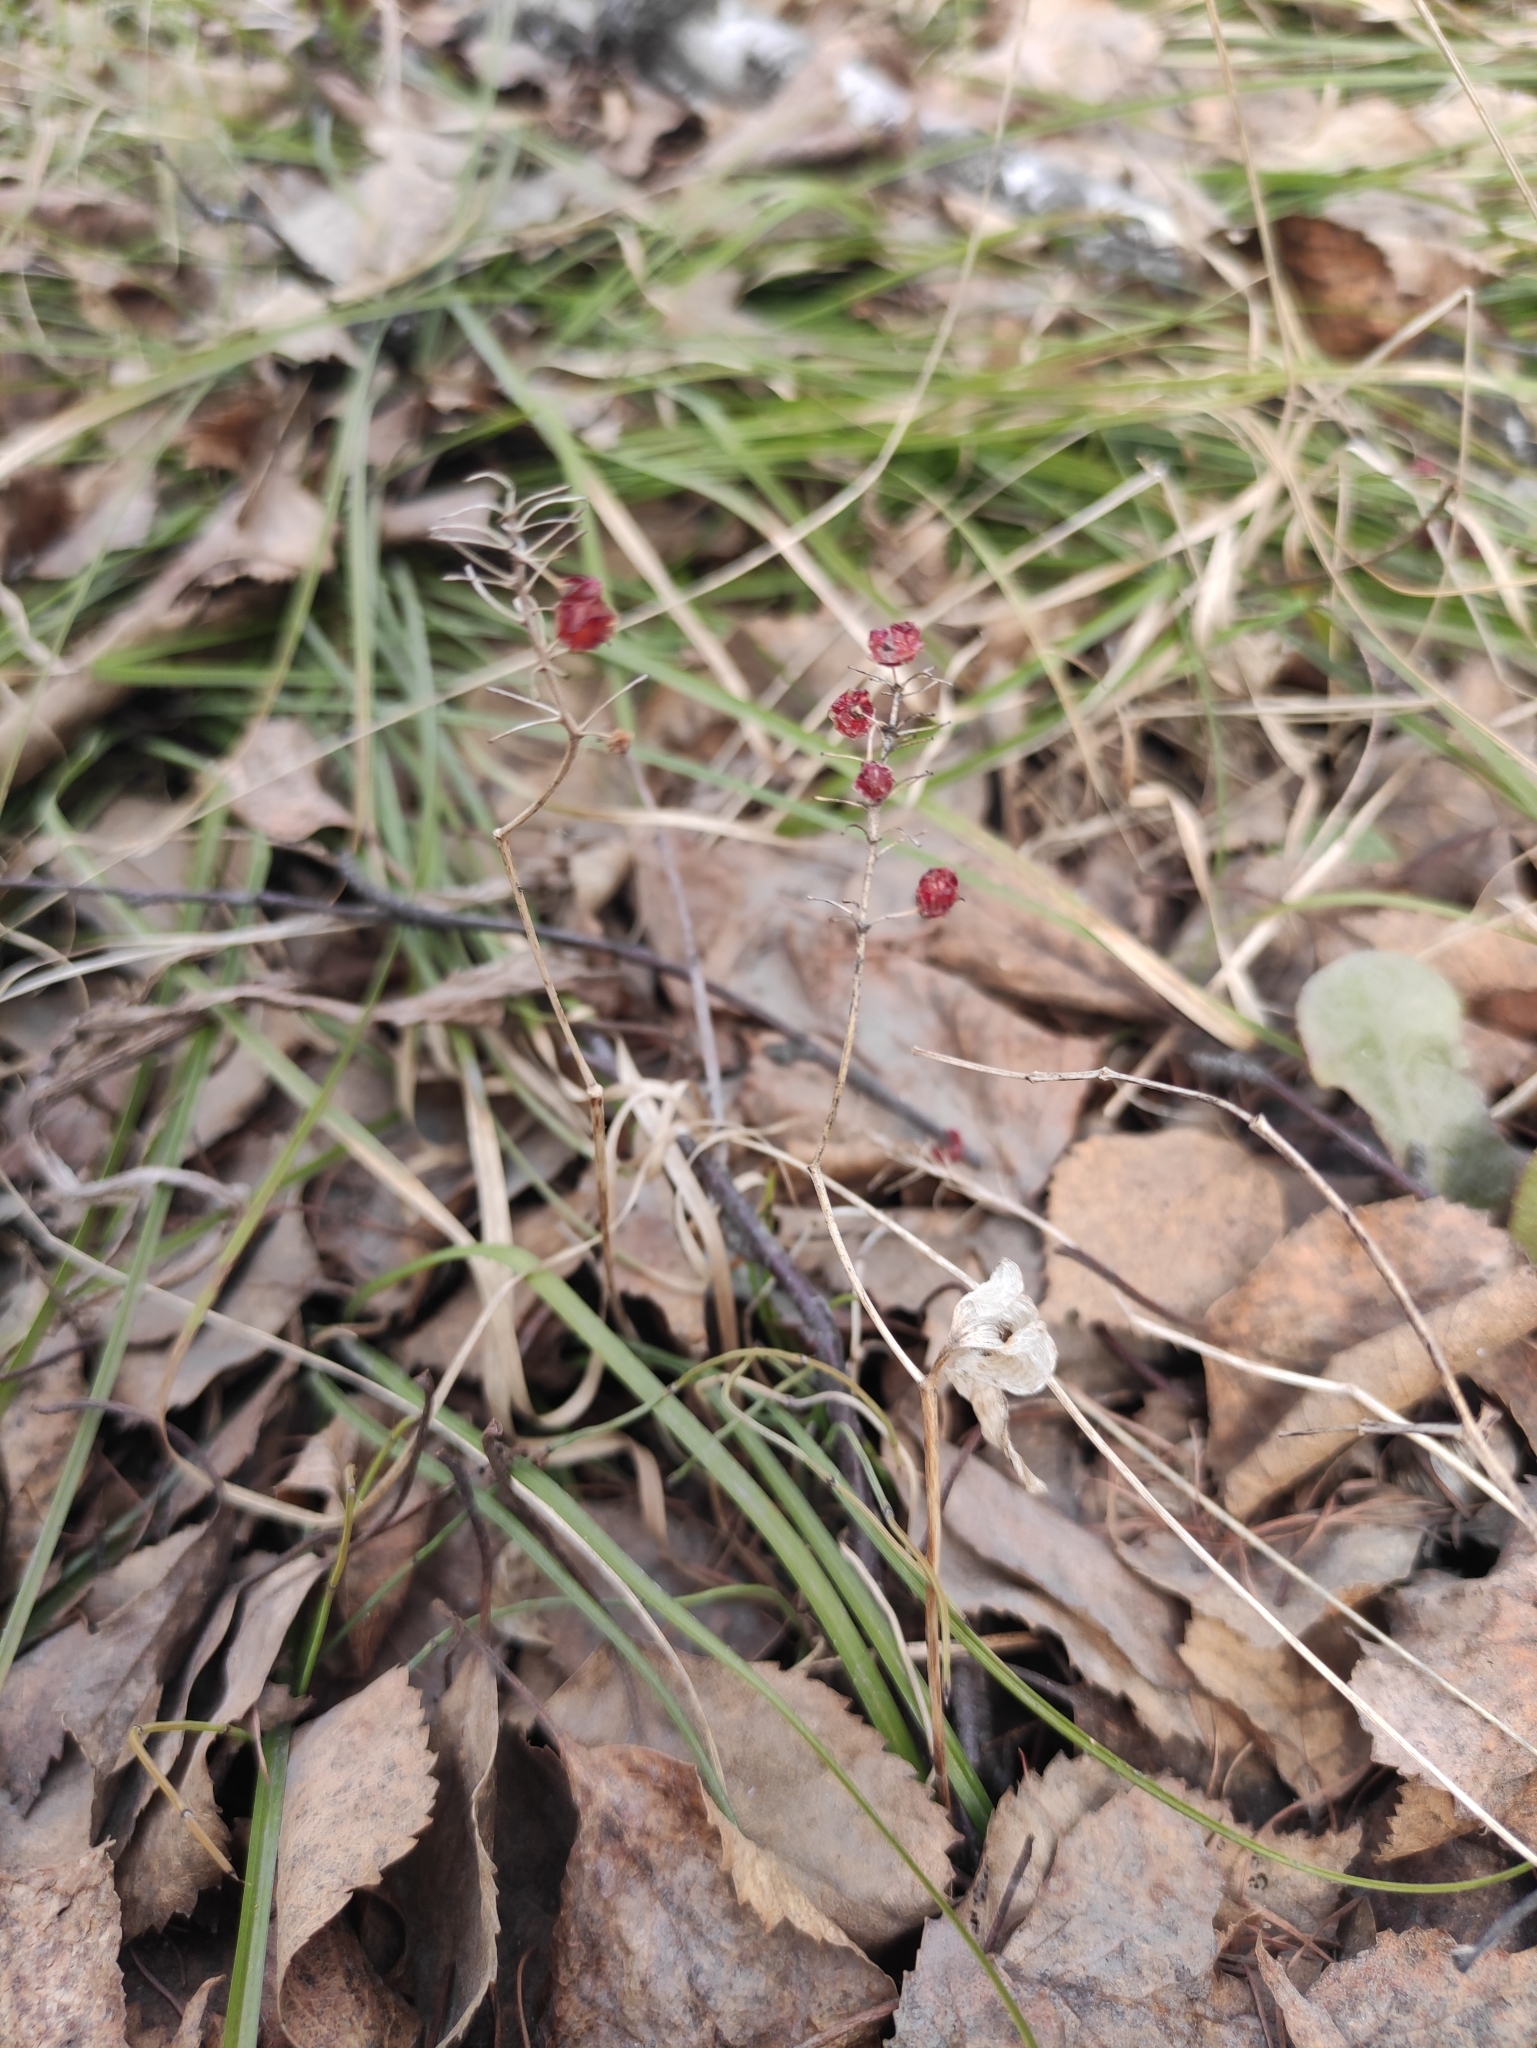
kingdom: Plantae
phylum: Tracheophyta
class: Liliopsida
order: Asparagales
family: Asparagaceae
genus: Maianthemum
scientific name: Maianthemum bifolium
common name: May lily
